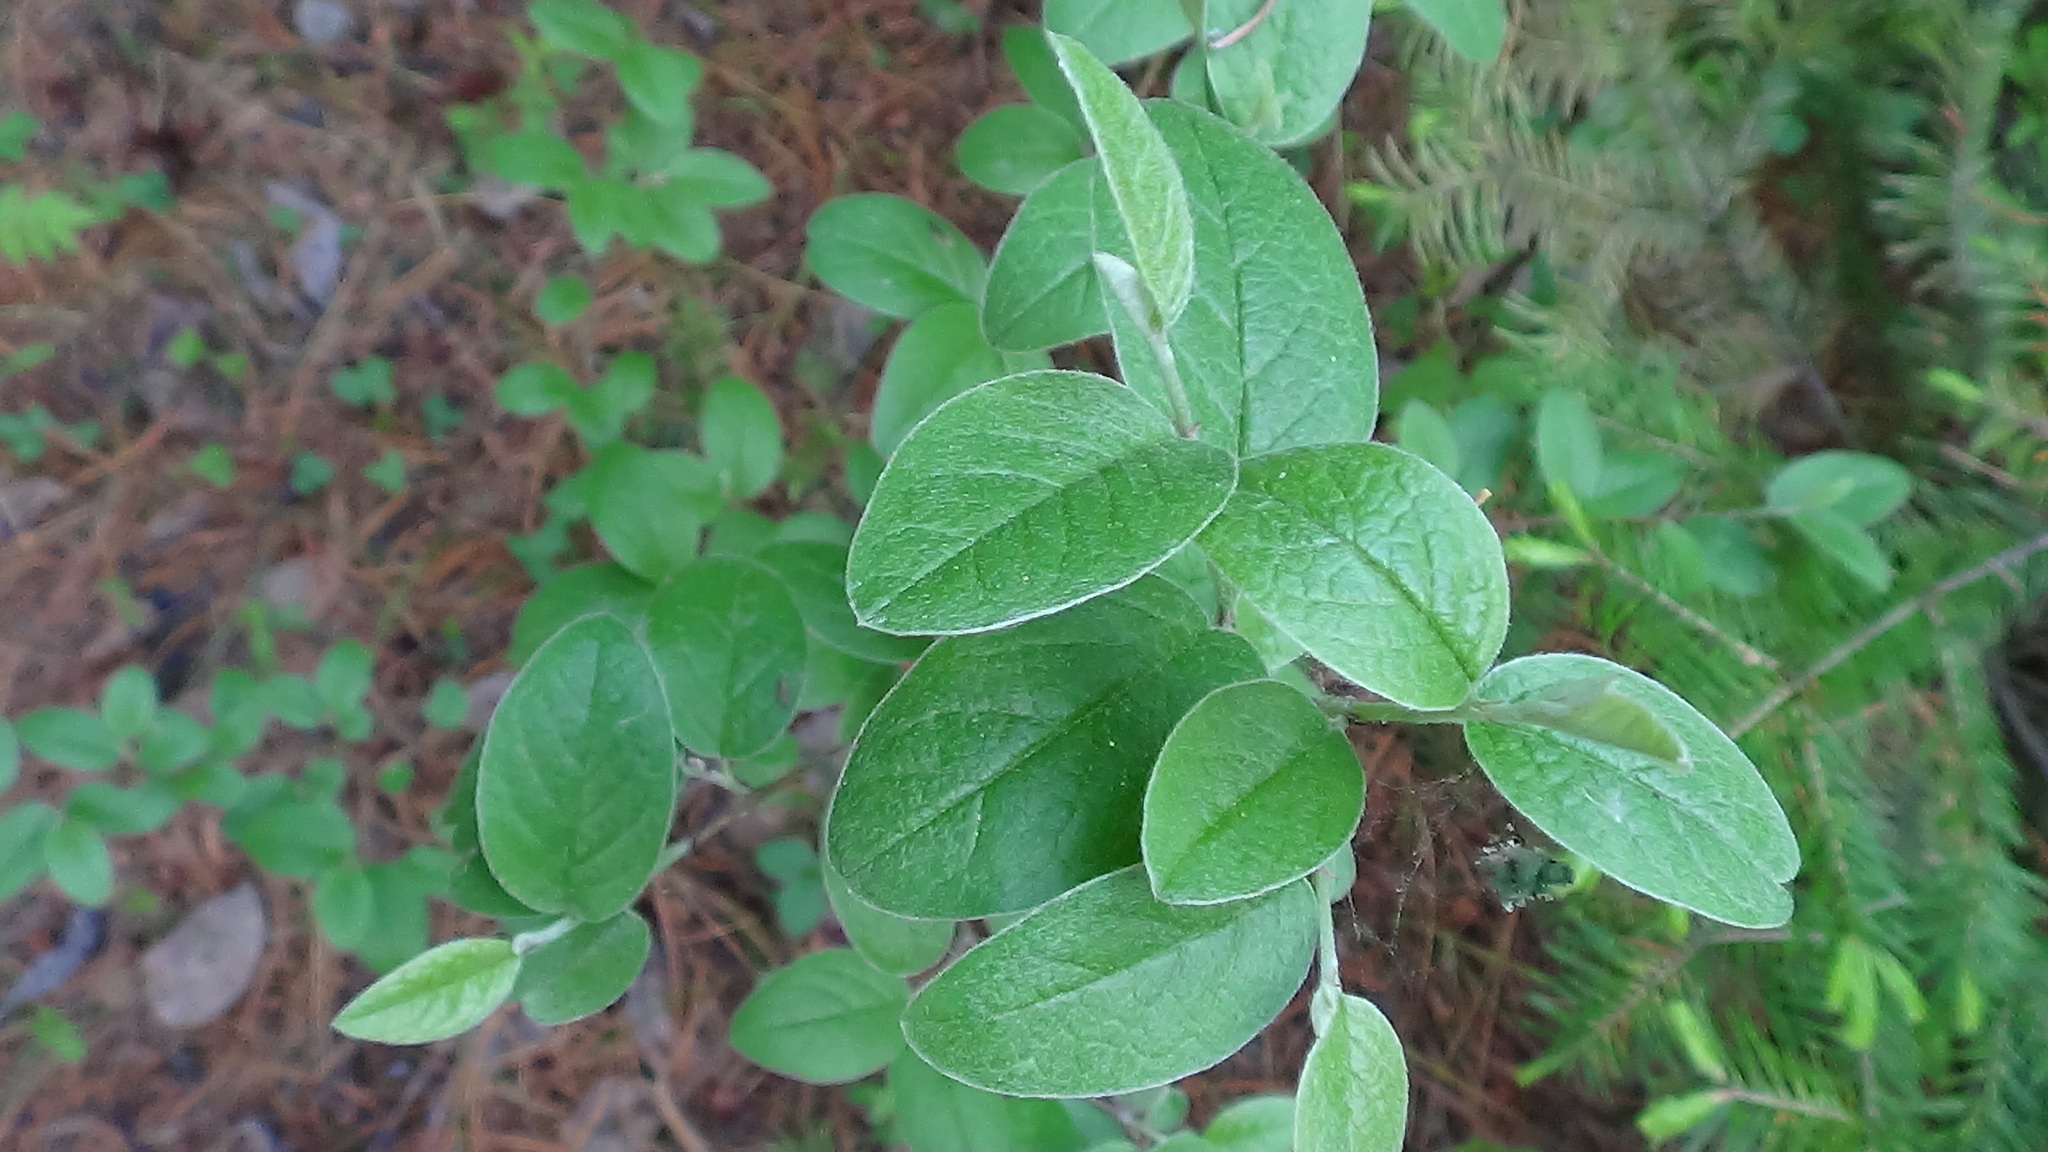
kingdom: Plantae
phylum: Tracheophyta
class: Magnoliopsida
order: Rosales
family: Rosaceae
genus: Cotoneaster
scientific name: Cotoneaster melanocarpus
